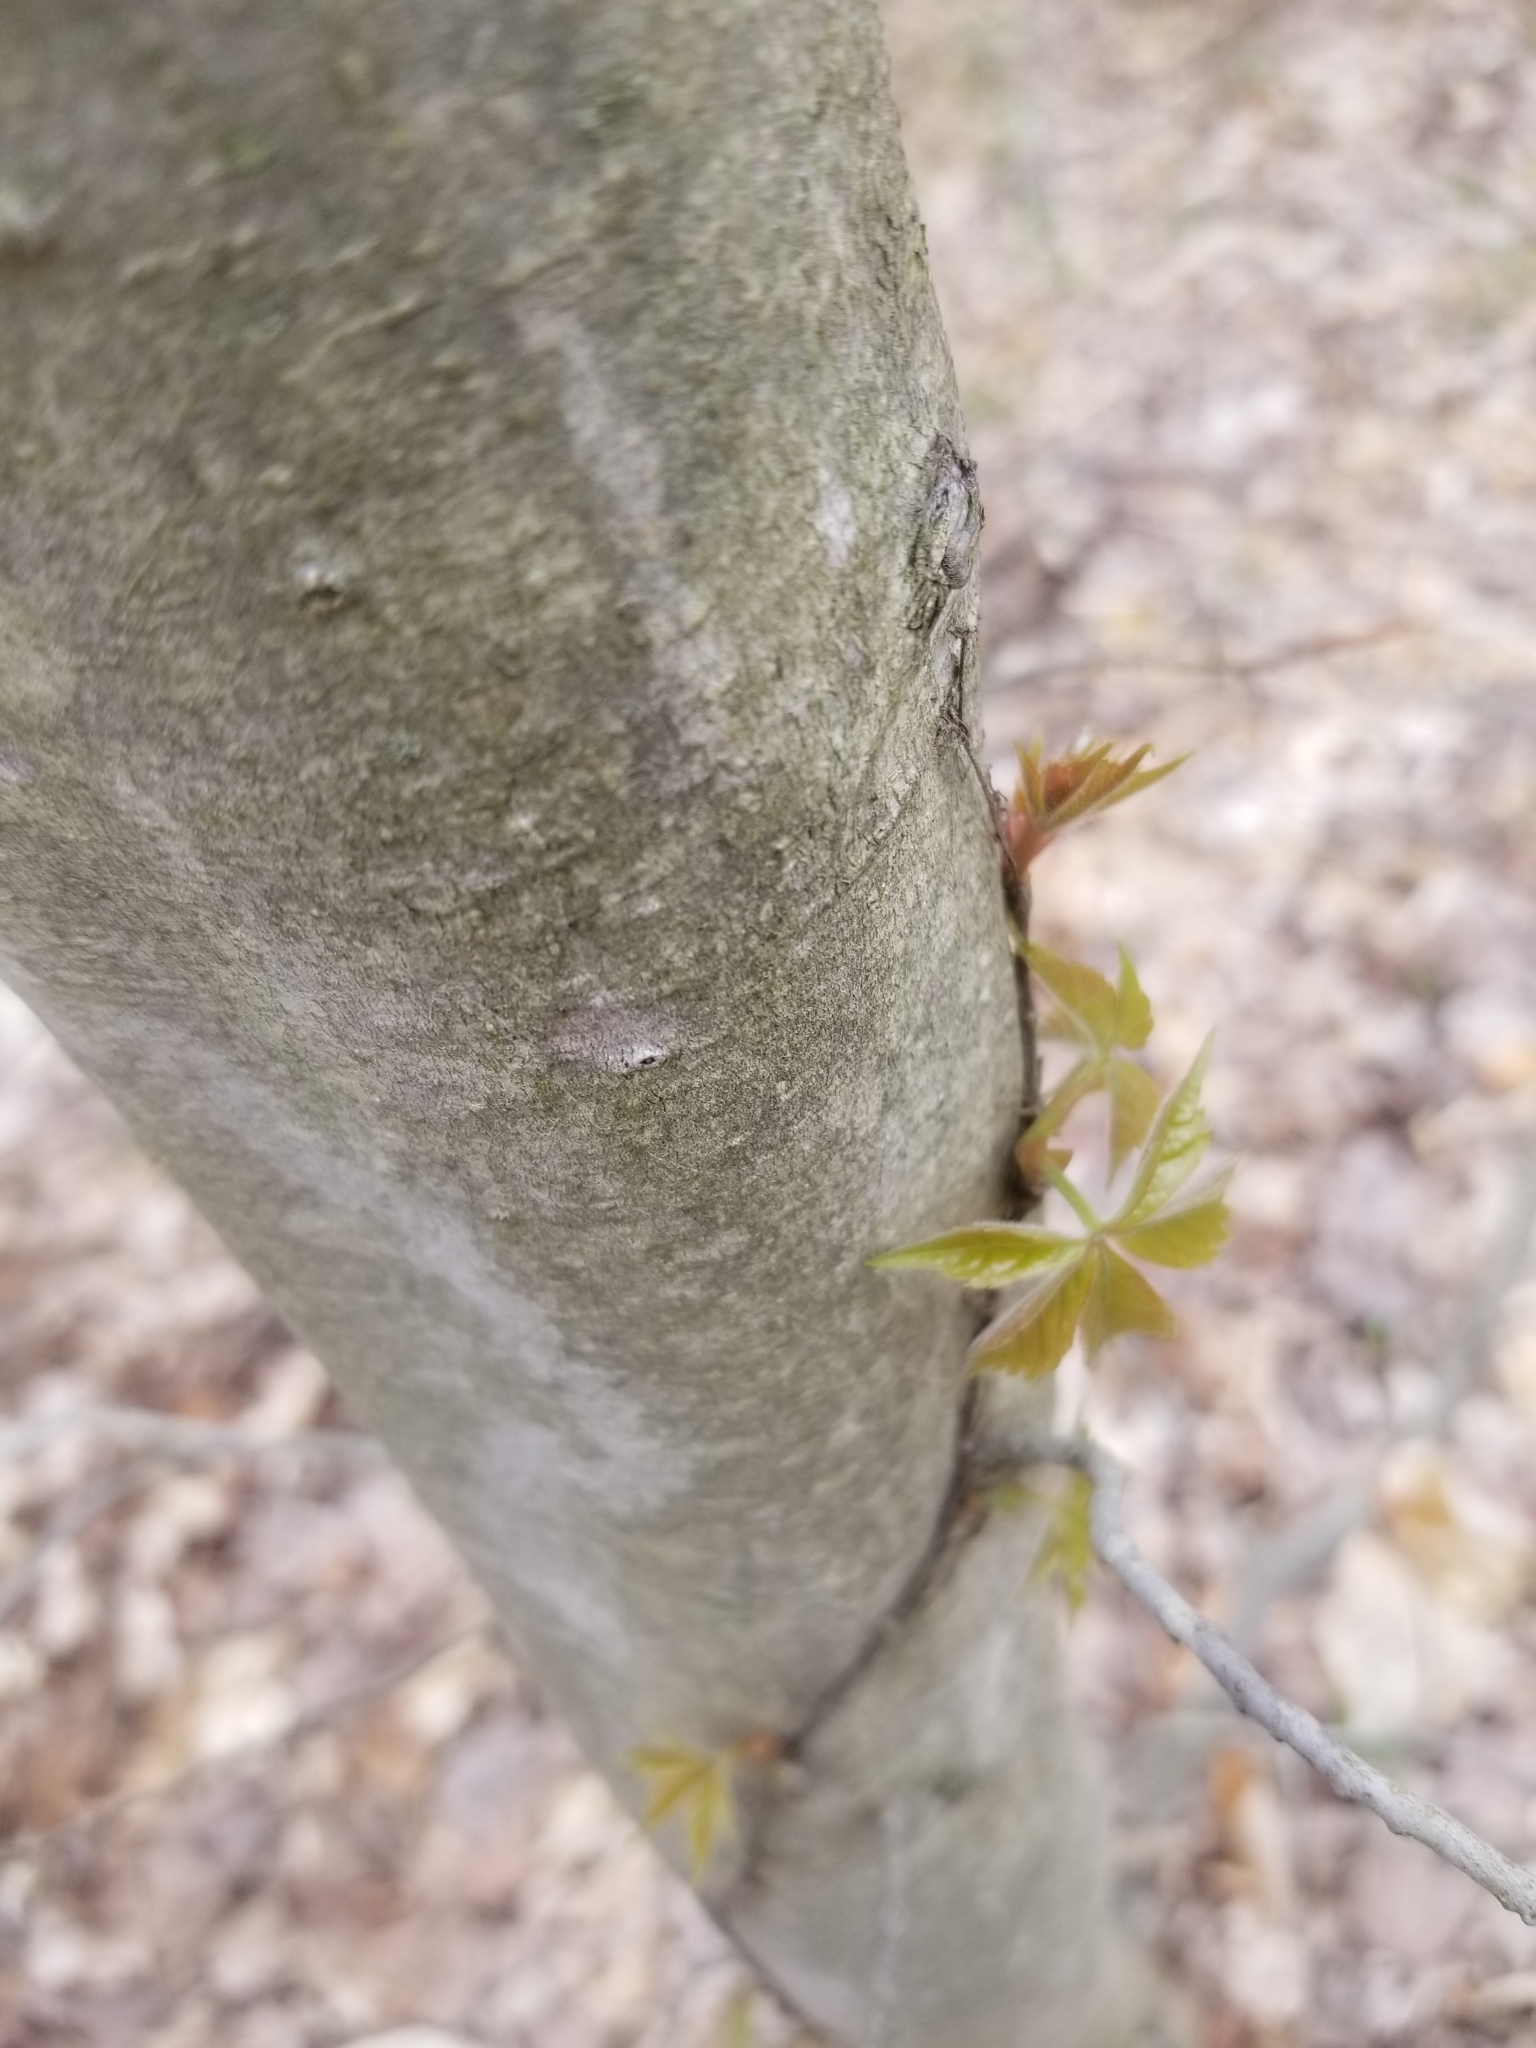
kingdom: Plantae
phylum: Tracheophyta
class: Magnoliopsida
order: Vitales
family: Vitaceae
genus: Parthenocissus
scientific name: Parthenocissus quinquefolia
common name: Virginia-creeper
